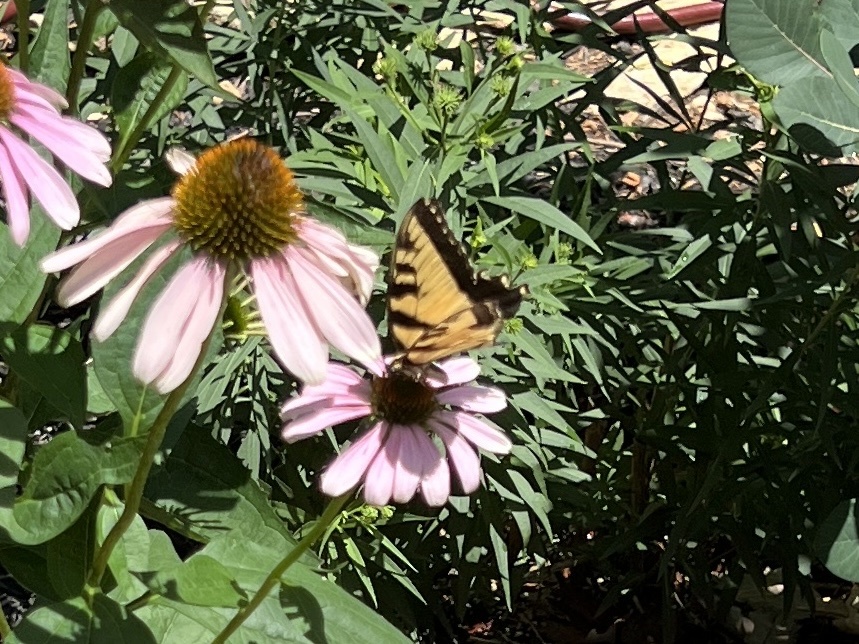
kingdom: Animalia
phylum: Arthropoda
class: Insecta
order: Lepidoptera
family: Papilionidae
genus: Papilio
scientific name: Papilio glaucus
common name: Tiger swallowtail
